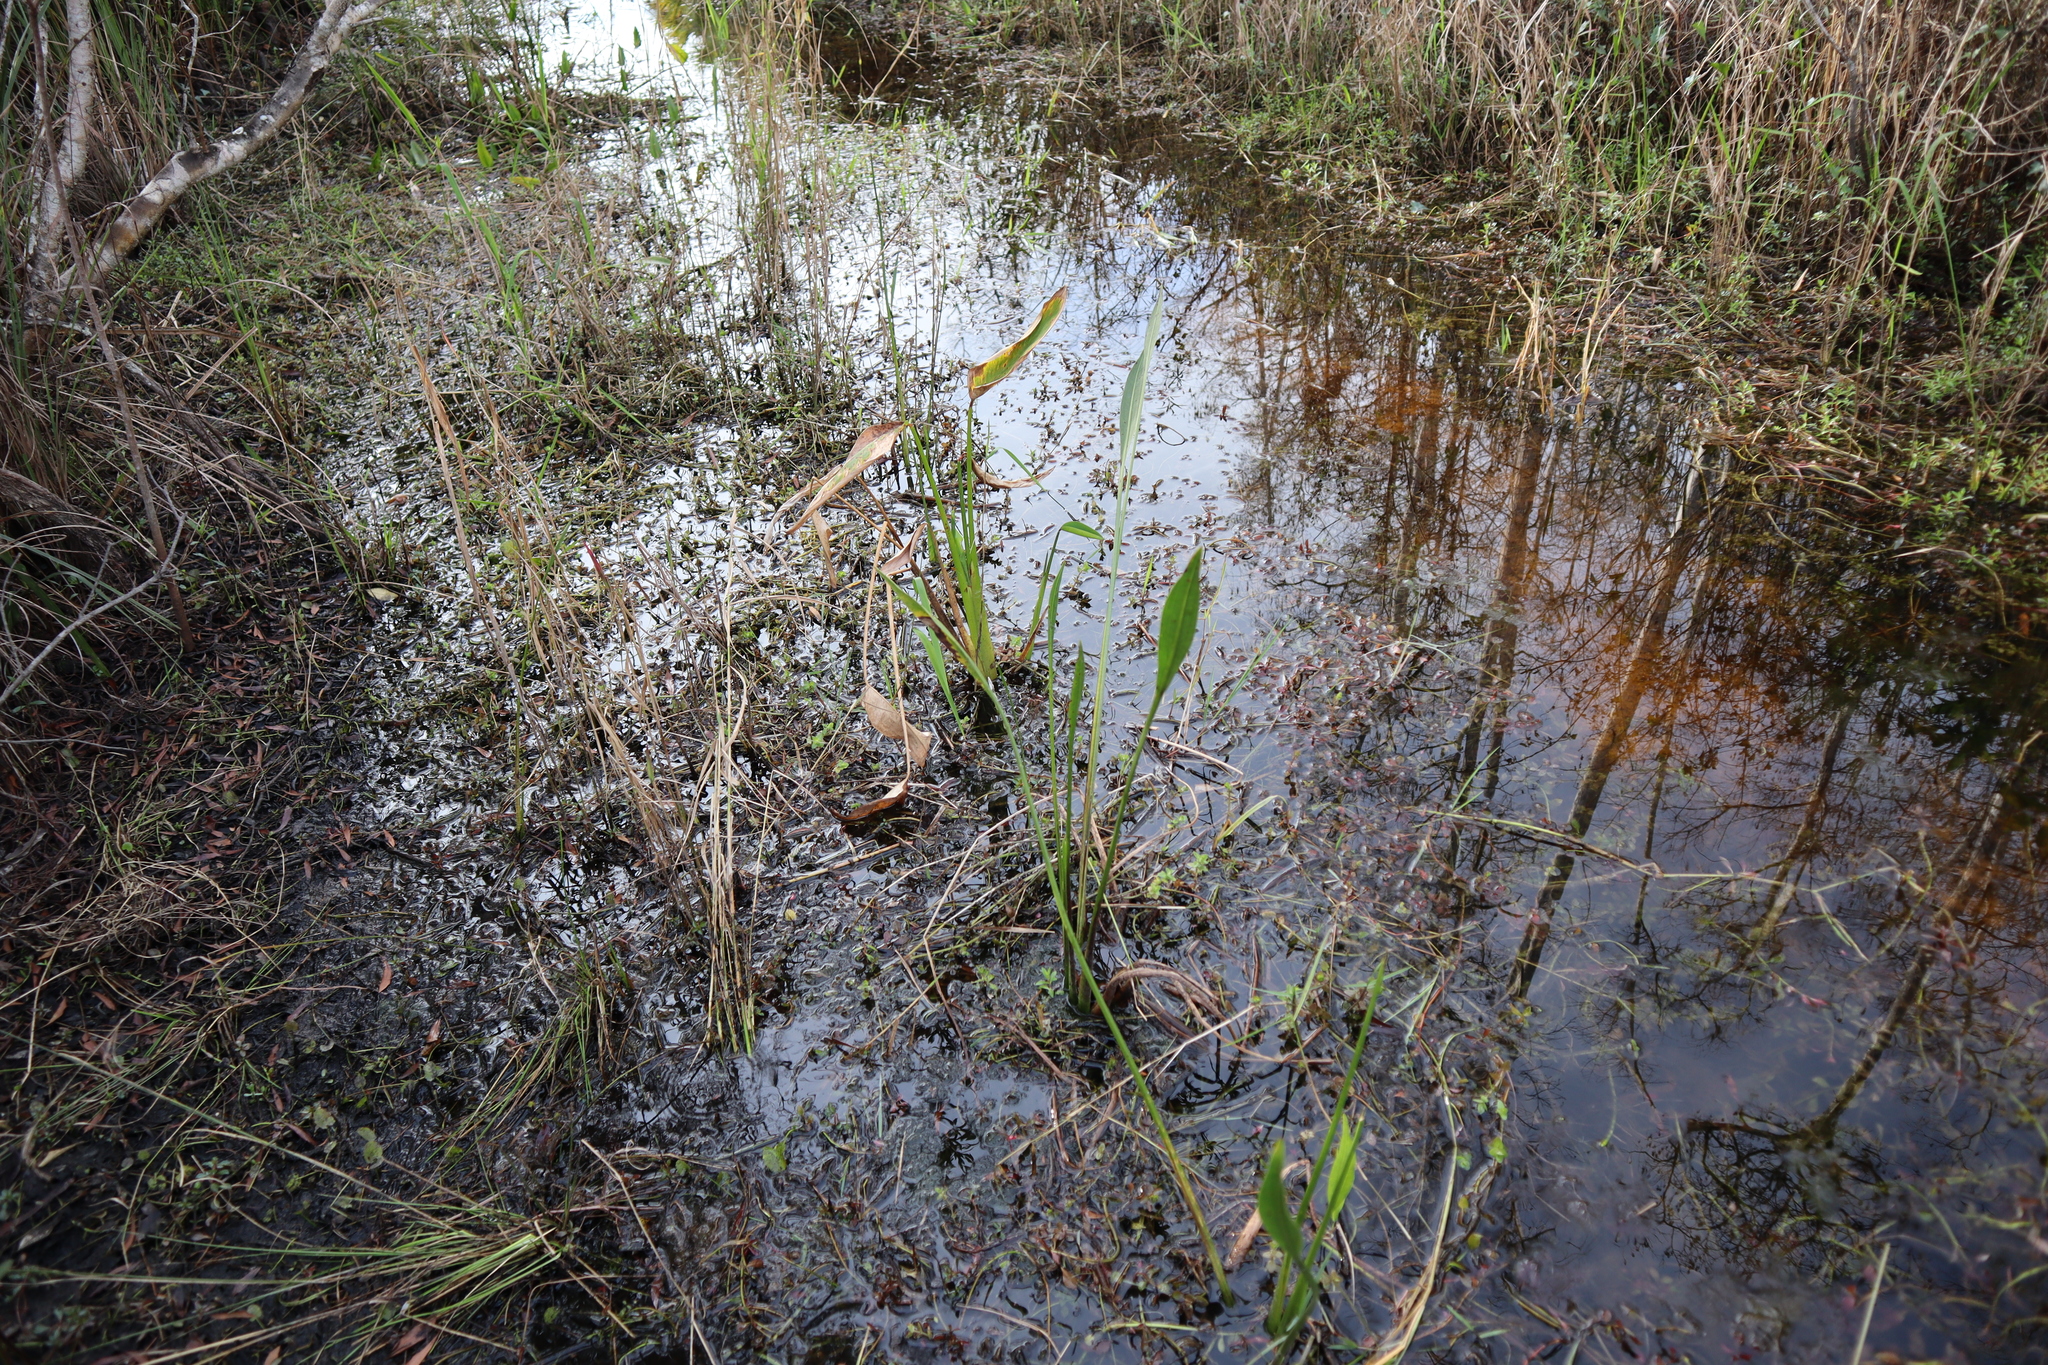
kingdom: Plantae
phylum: Tracheophyta
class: Liliopsida
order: Alismatales
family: Alismataceae
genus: Sagittaria
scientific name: Sagittaria lancifolia
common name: Lance-leaf arrowhead
